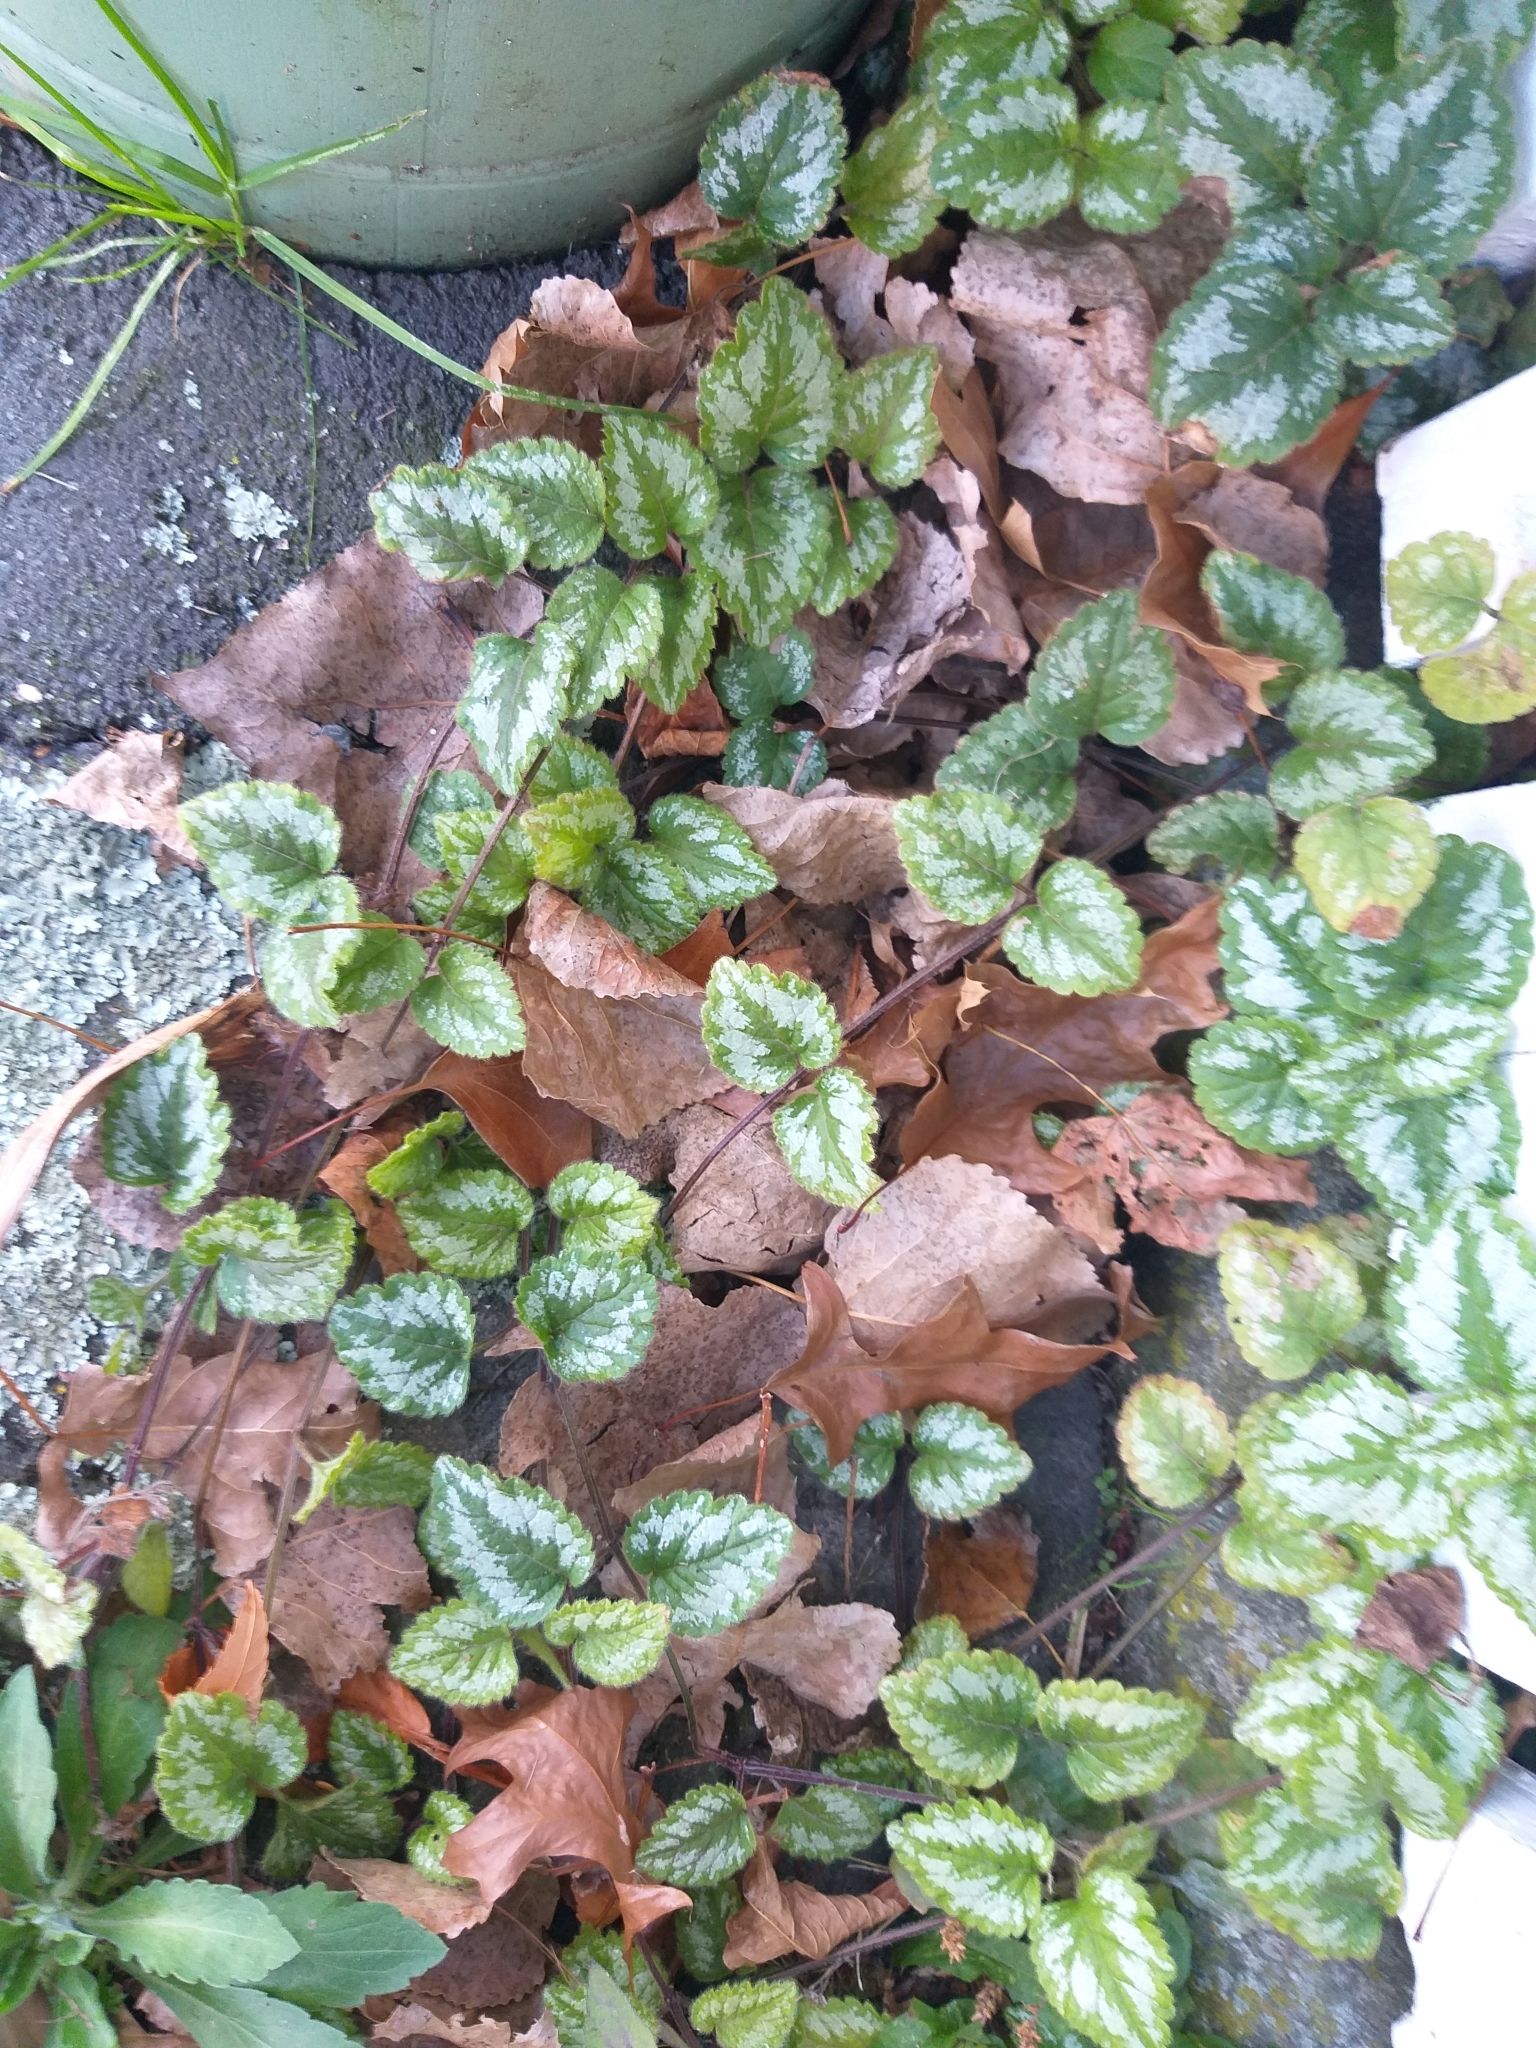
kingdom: Plantae
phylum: Tracheophyta
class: Magnoliopsida
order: Lamiales
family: Lamiaceae
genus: Lamium
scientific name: Lamium galeobdolon
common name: Yellow archangel
